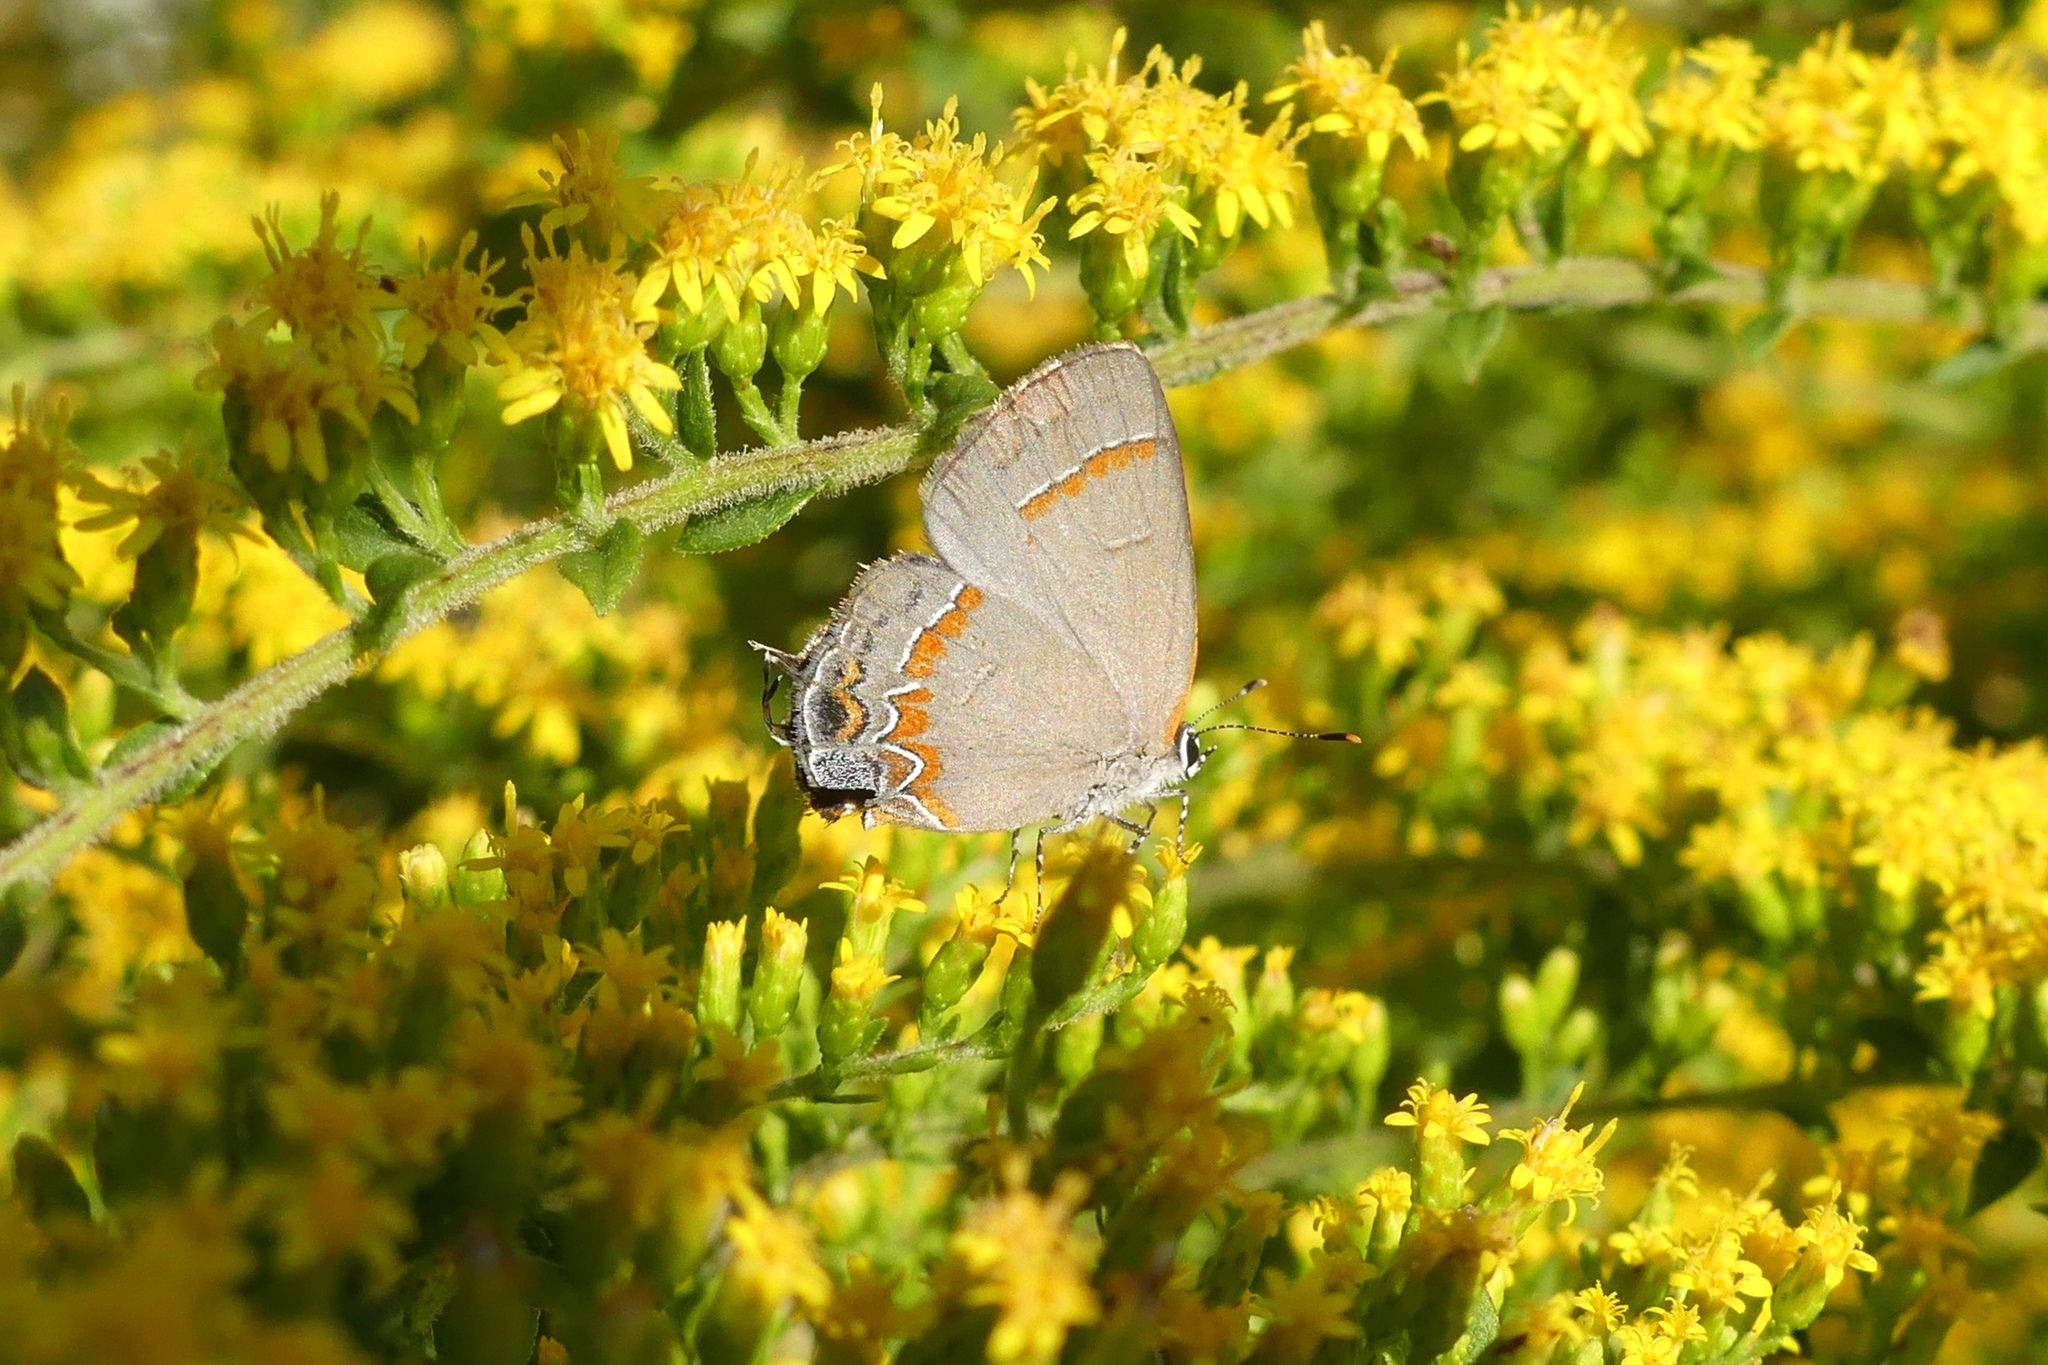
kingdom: Animalia
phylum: Arthropoda
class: Insecta
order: Lepidoptera
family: Lycaenidae
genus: Calycopis
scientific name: Calycopis cecrops
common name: Red-banded hairstreak
